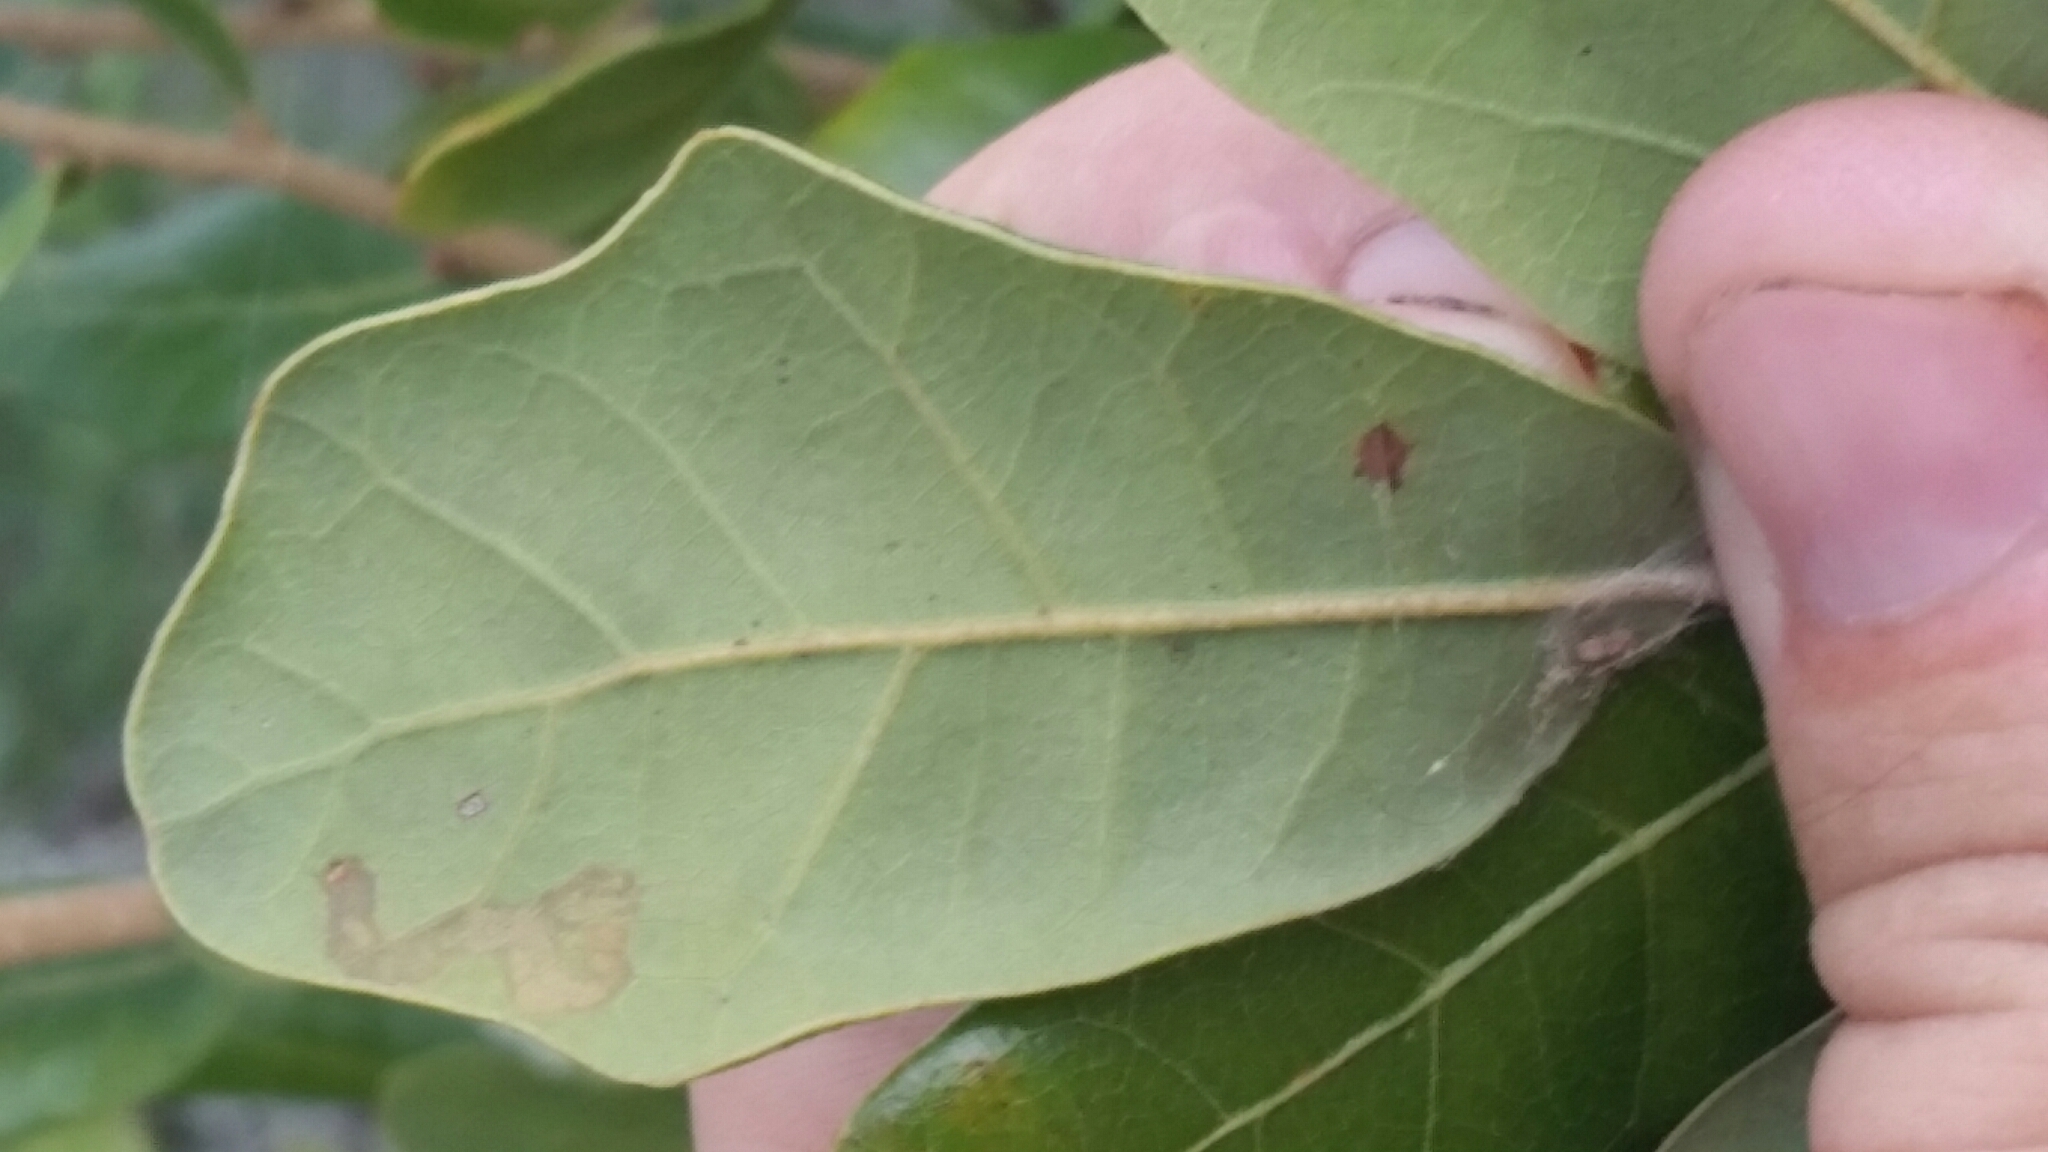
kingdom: Plantae
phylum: Tracheophyta
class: Magnoliopsida
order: Fagales
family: Fagaceae
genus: Quercus
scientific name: Quercus chapmanii
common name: Chapman oak
